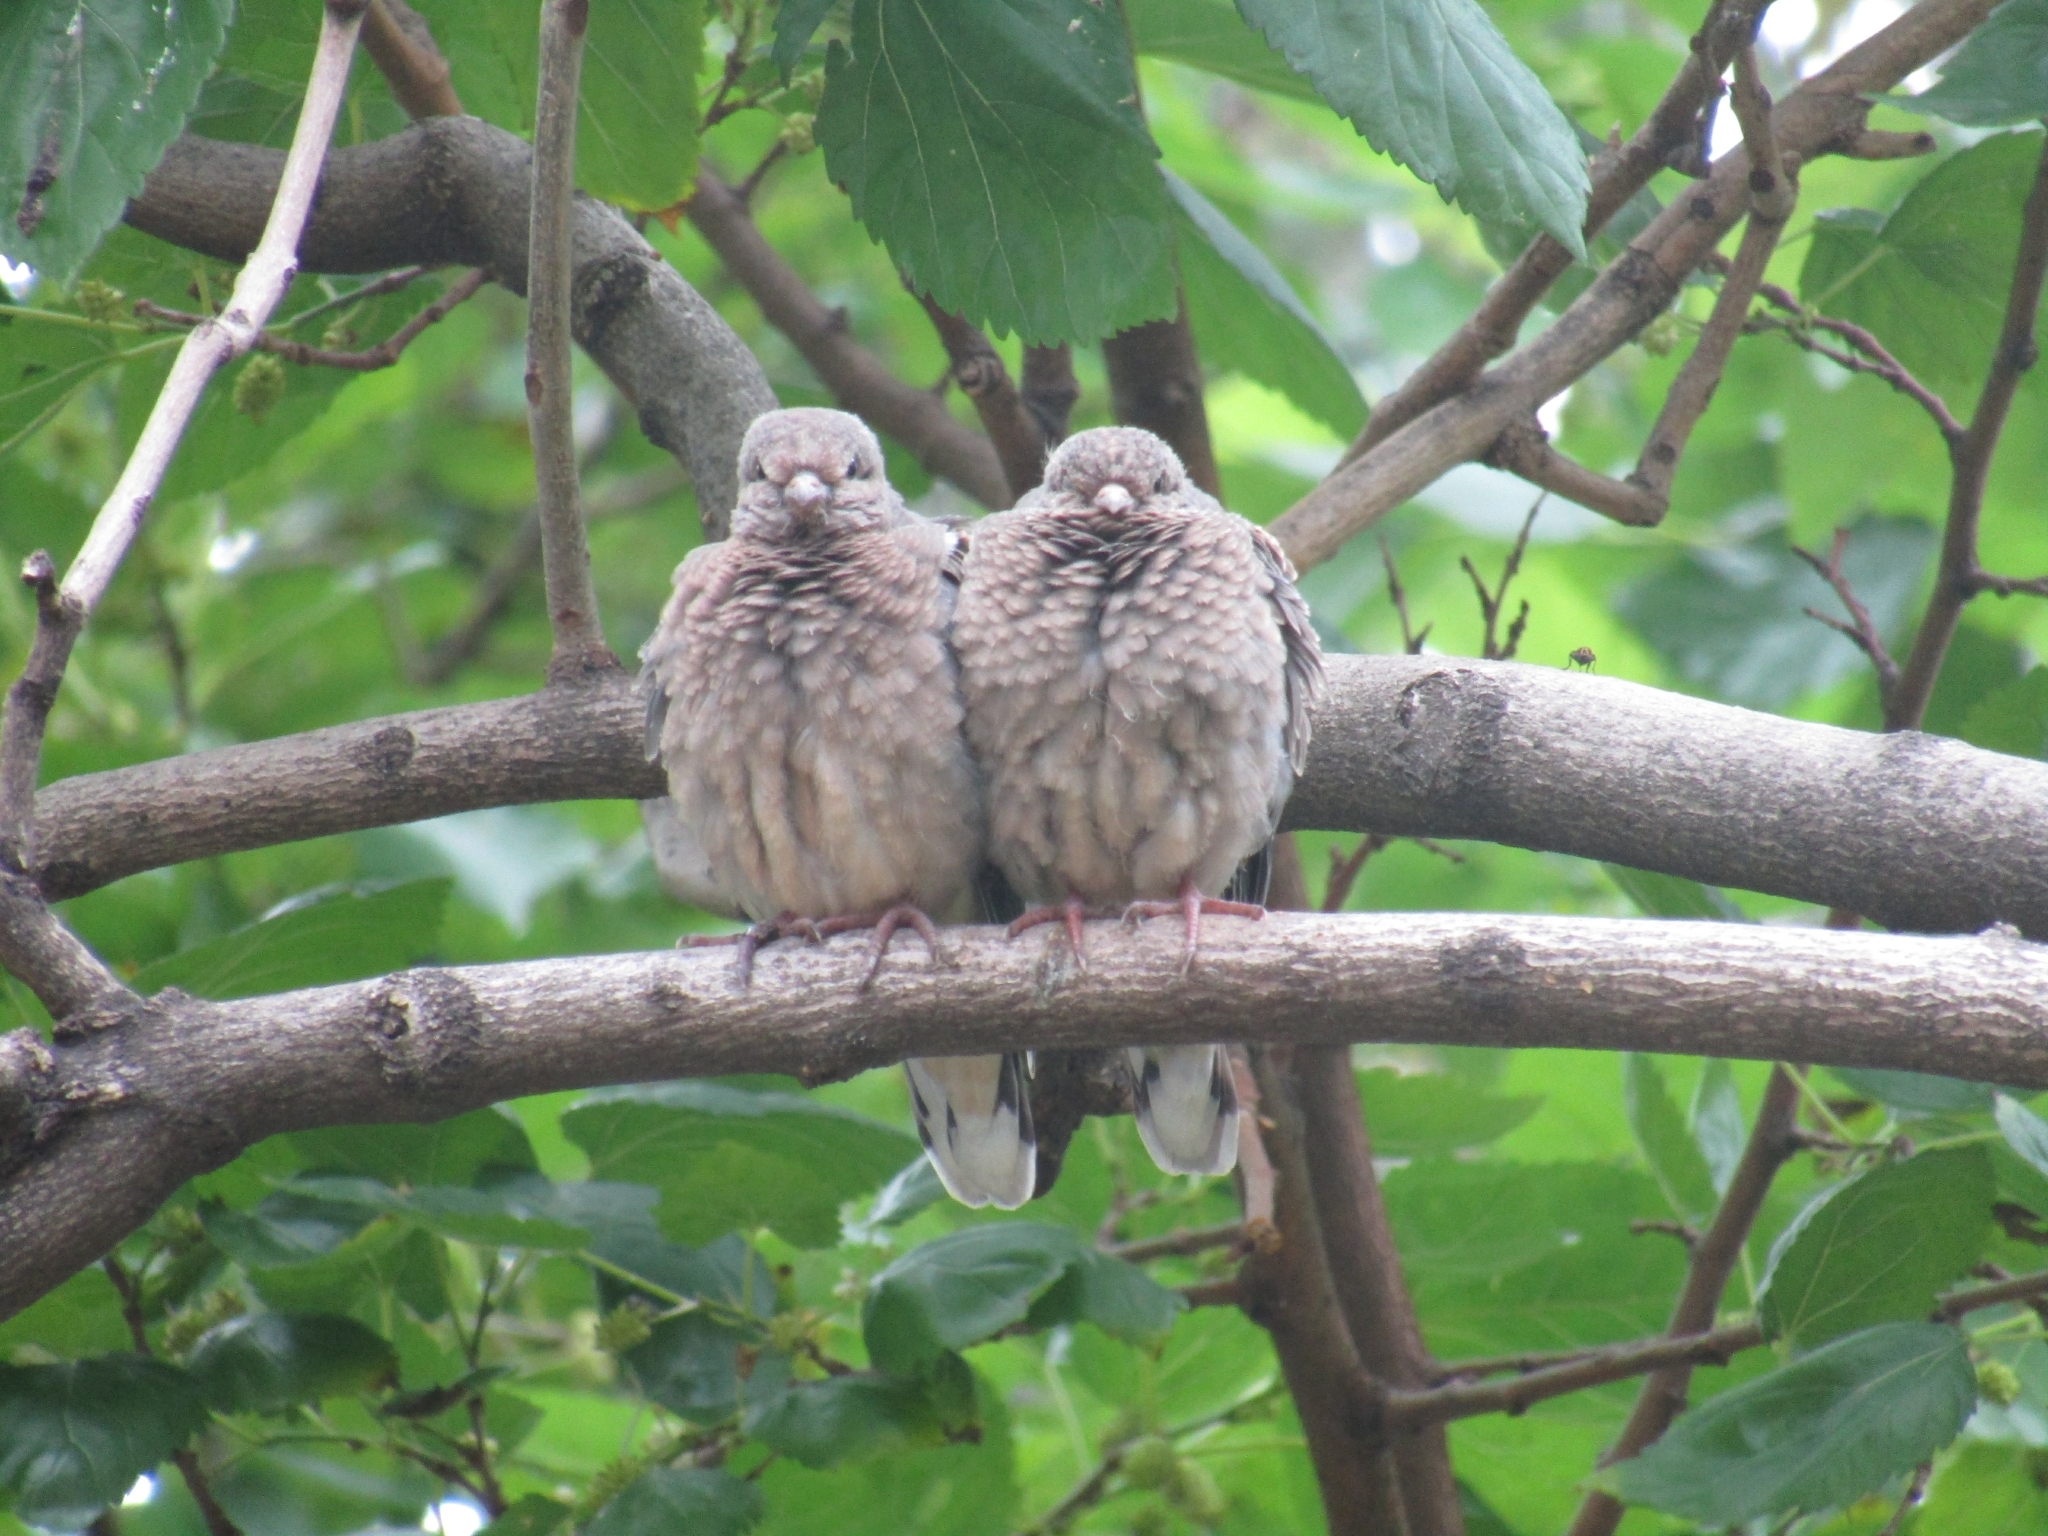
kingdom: Animalia
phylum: Chordata
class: Aves
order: Columbiformes
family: Columbidae
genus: Zenaida
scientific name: Zenaida auriculata
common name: Eared dove
